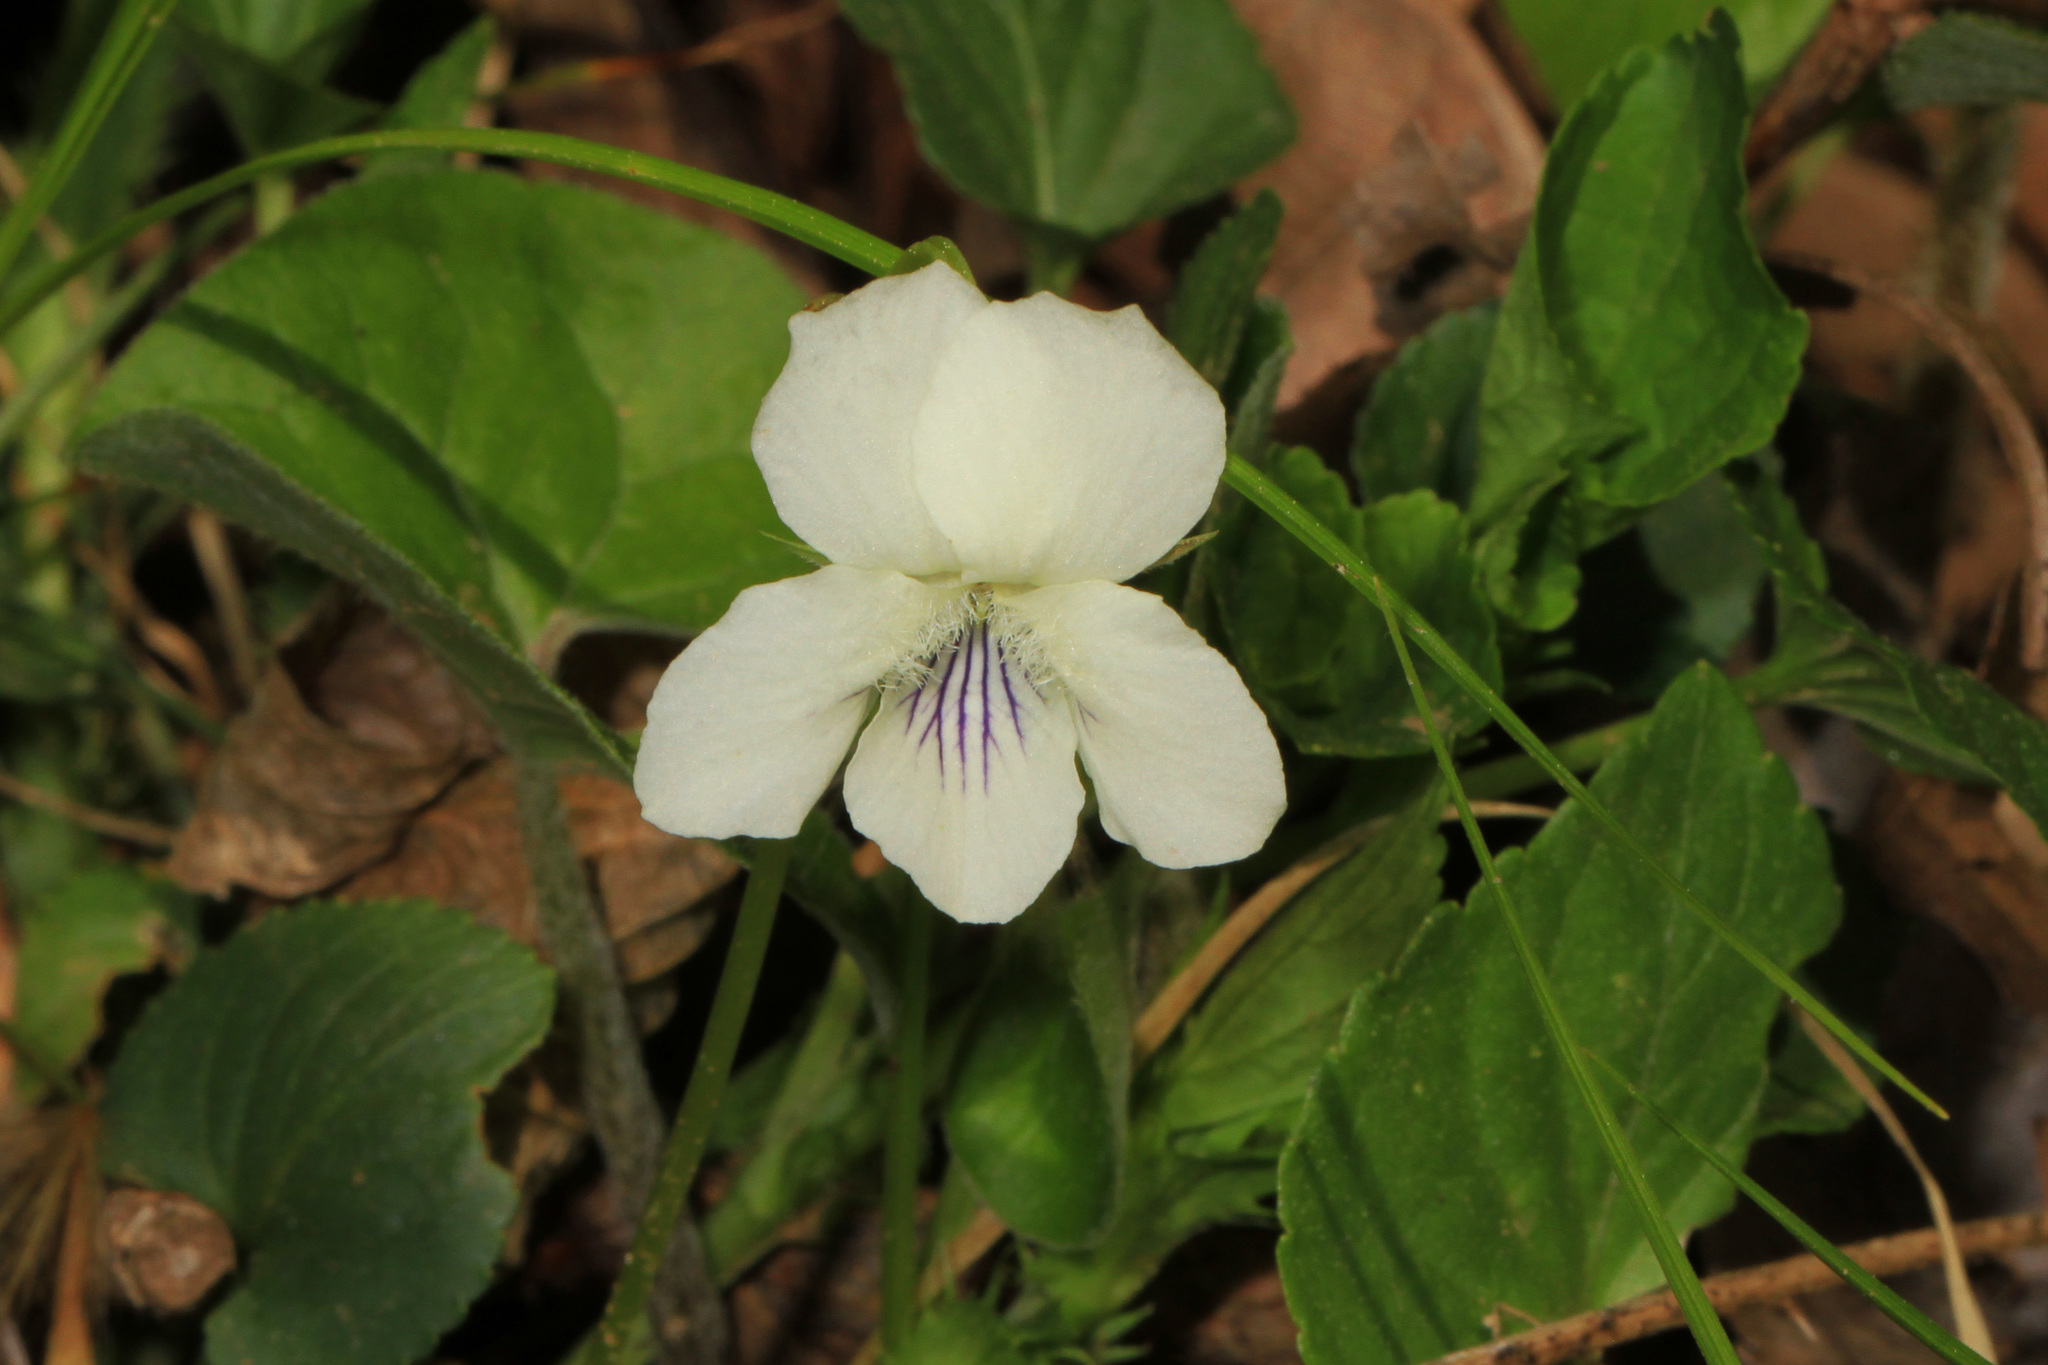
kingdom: Plantae
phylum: Tracheophyta
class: Magnoliopsida
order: Malpighiales
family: Violaceae
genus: Viola
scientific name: Viola striata
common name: Cream violet
